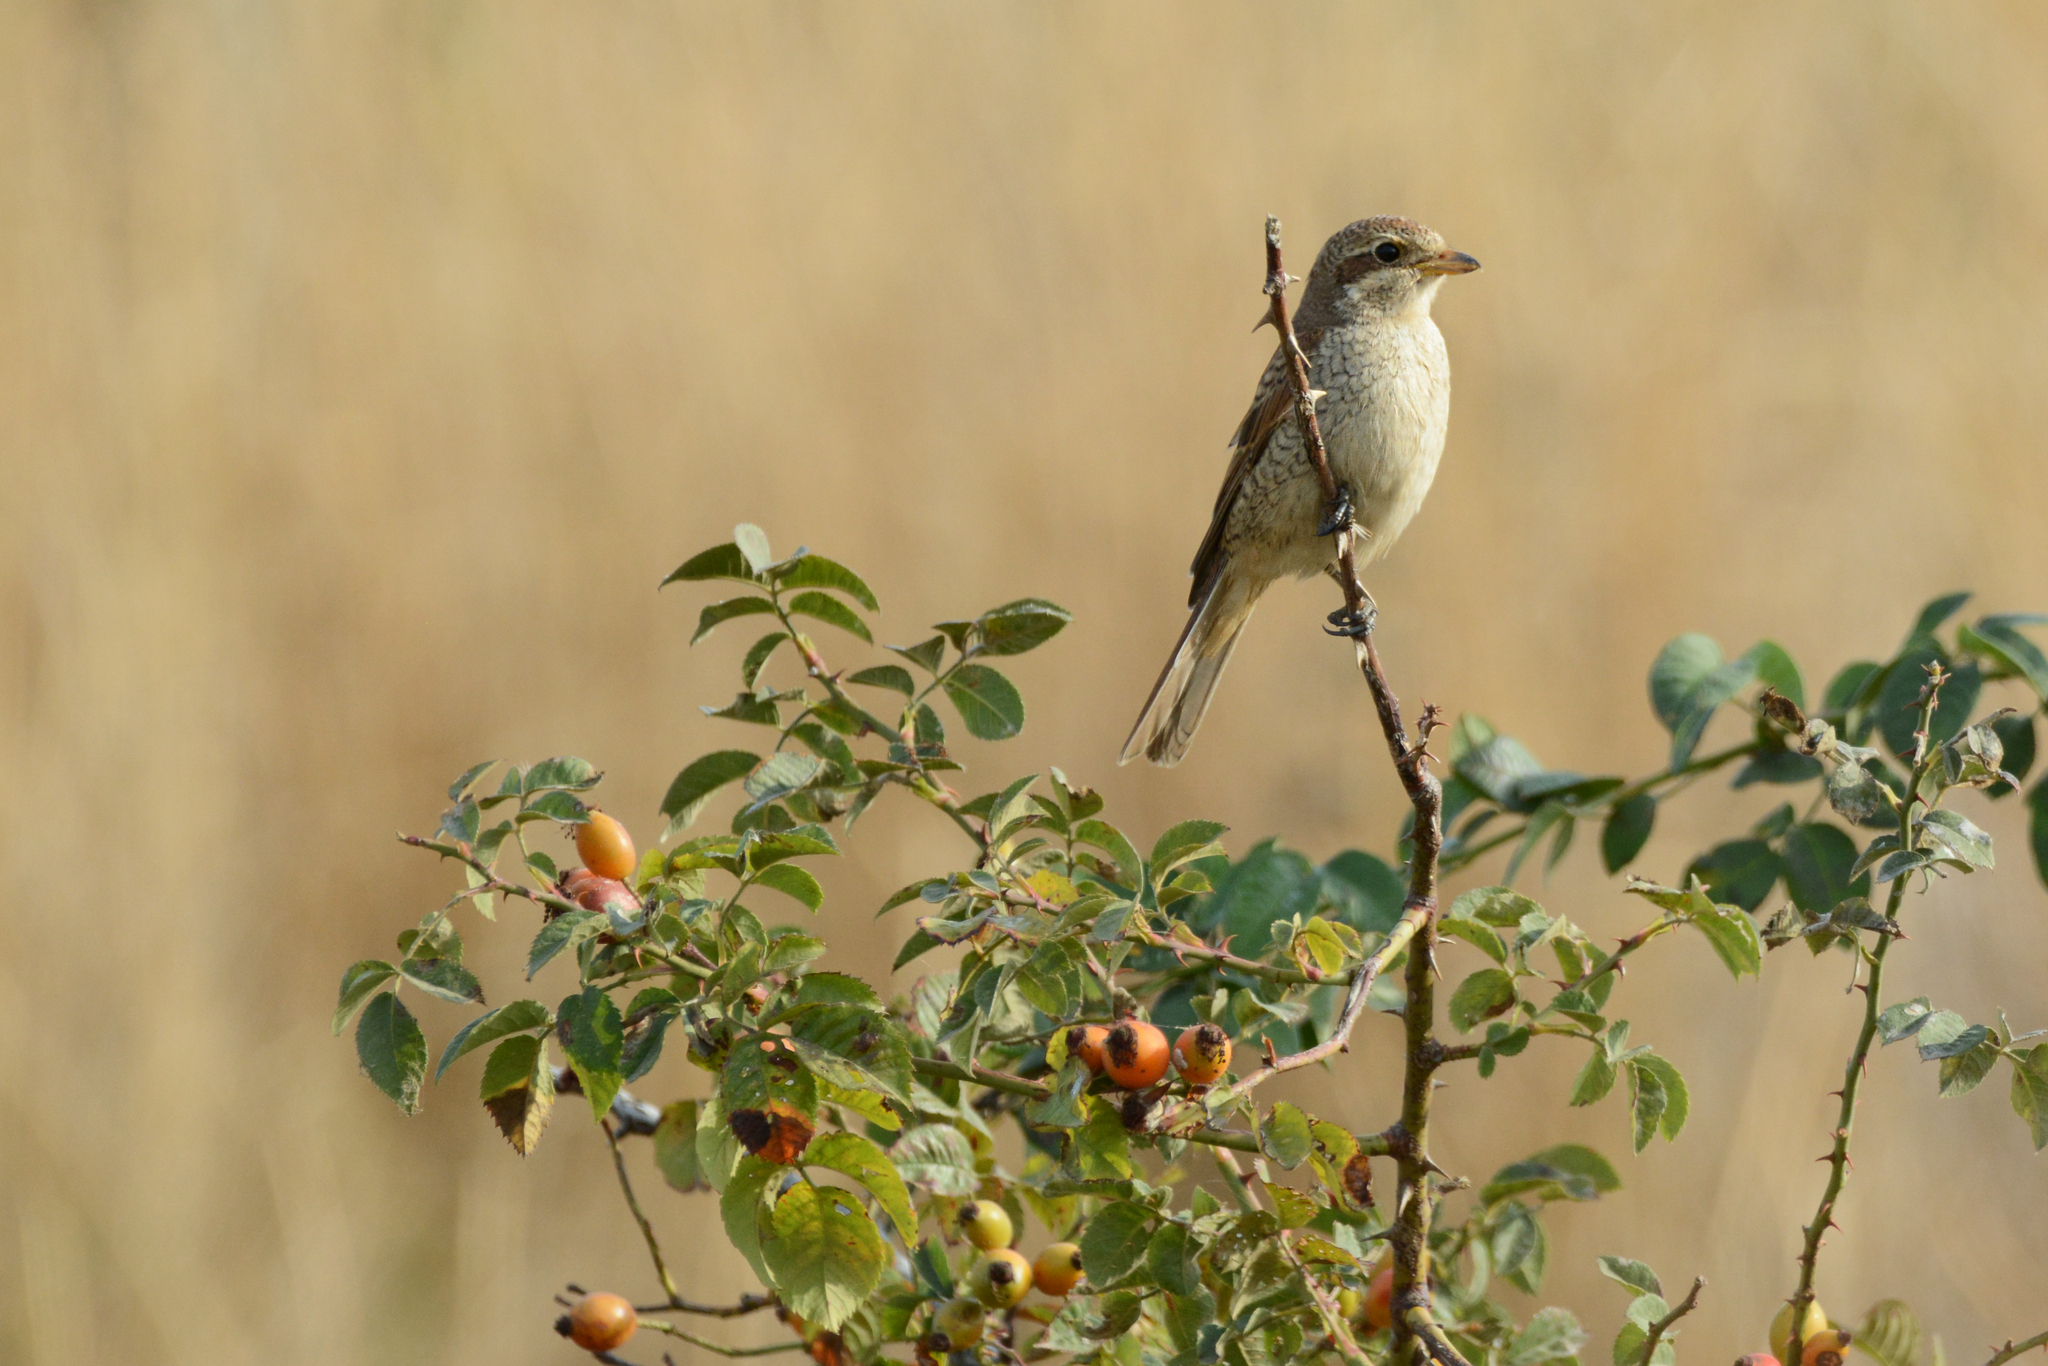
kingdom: Animalia
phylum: Chordata
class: Aves
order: Passeriformes
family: Laniidae
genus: Lanius
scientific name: Lanius collurio
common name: Red-backed shrike
